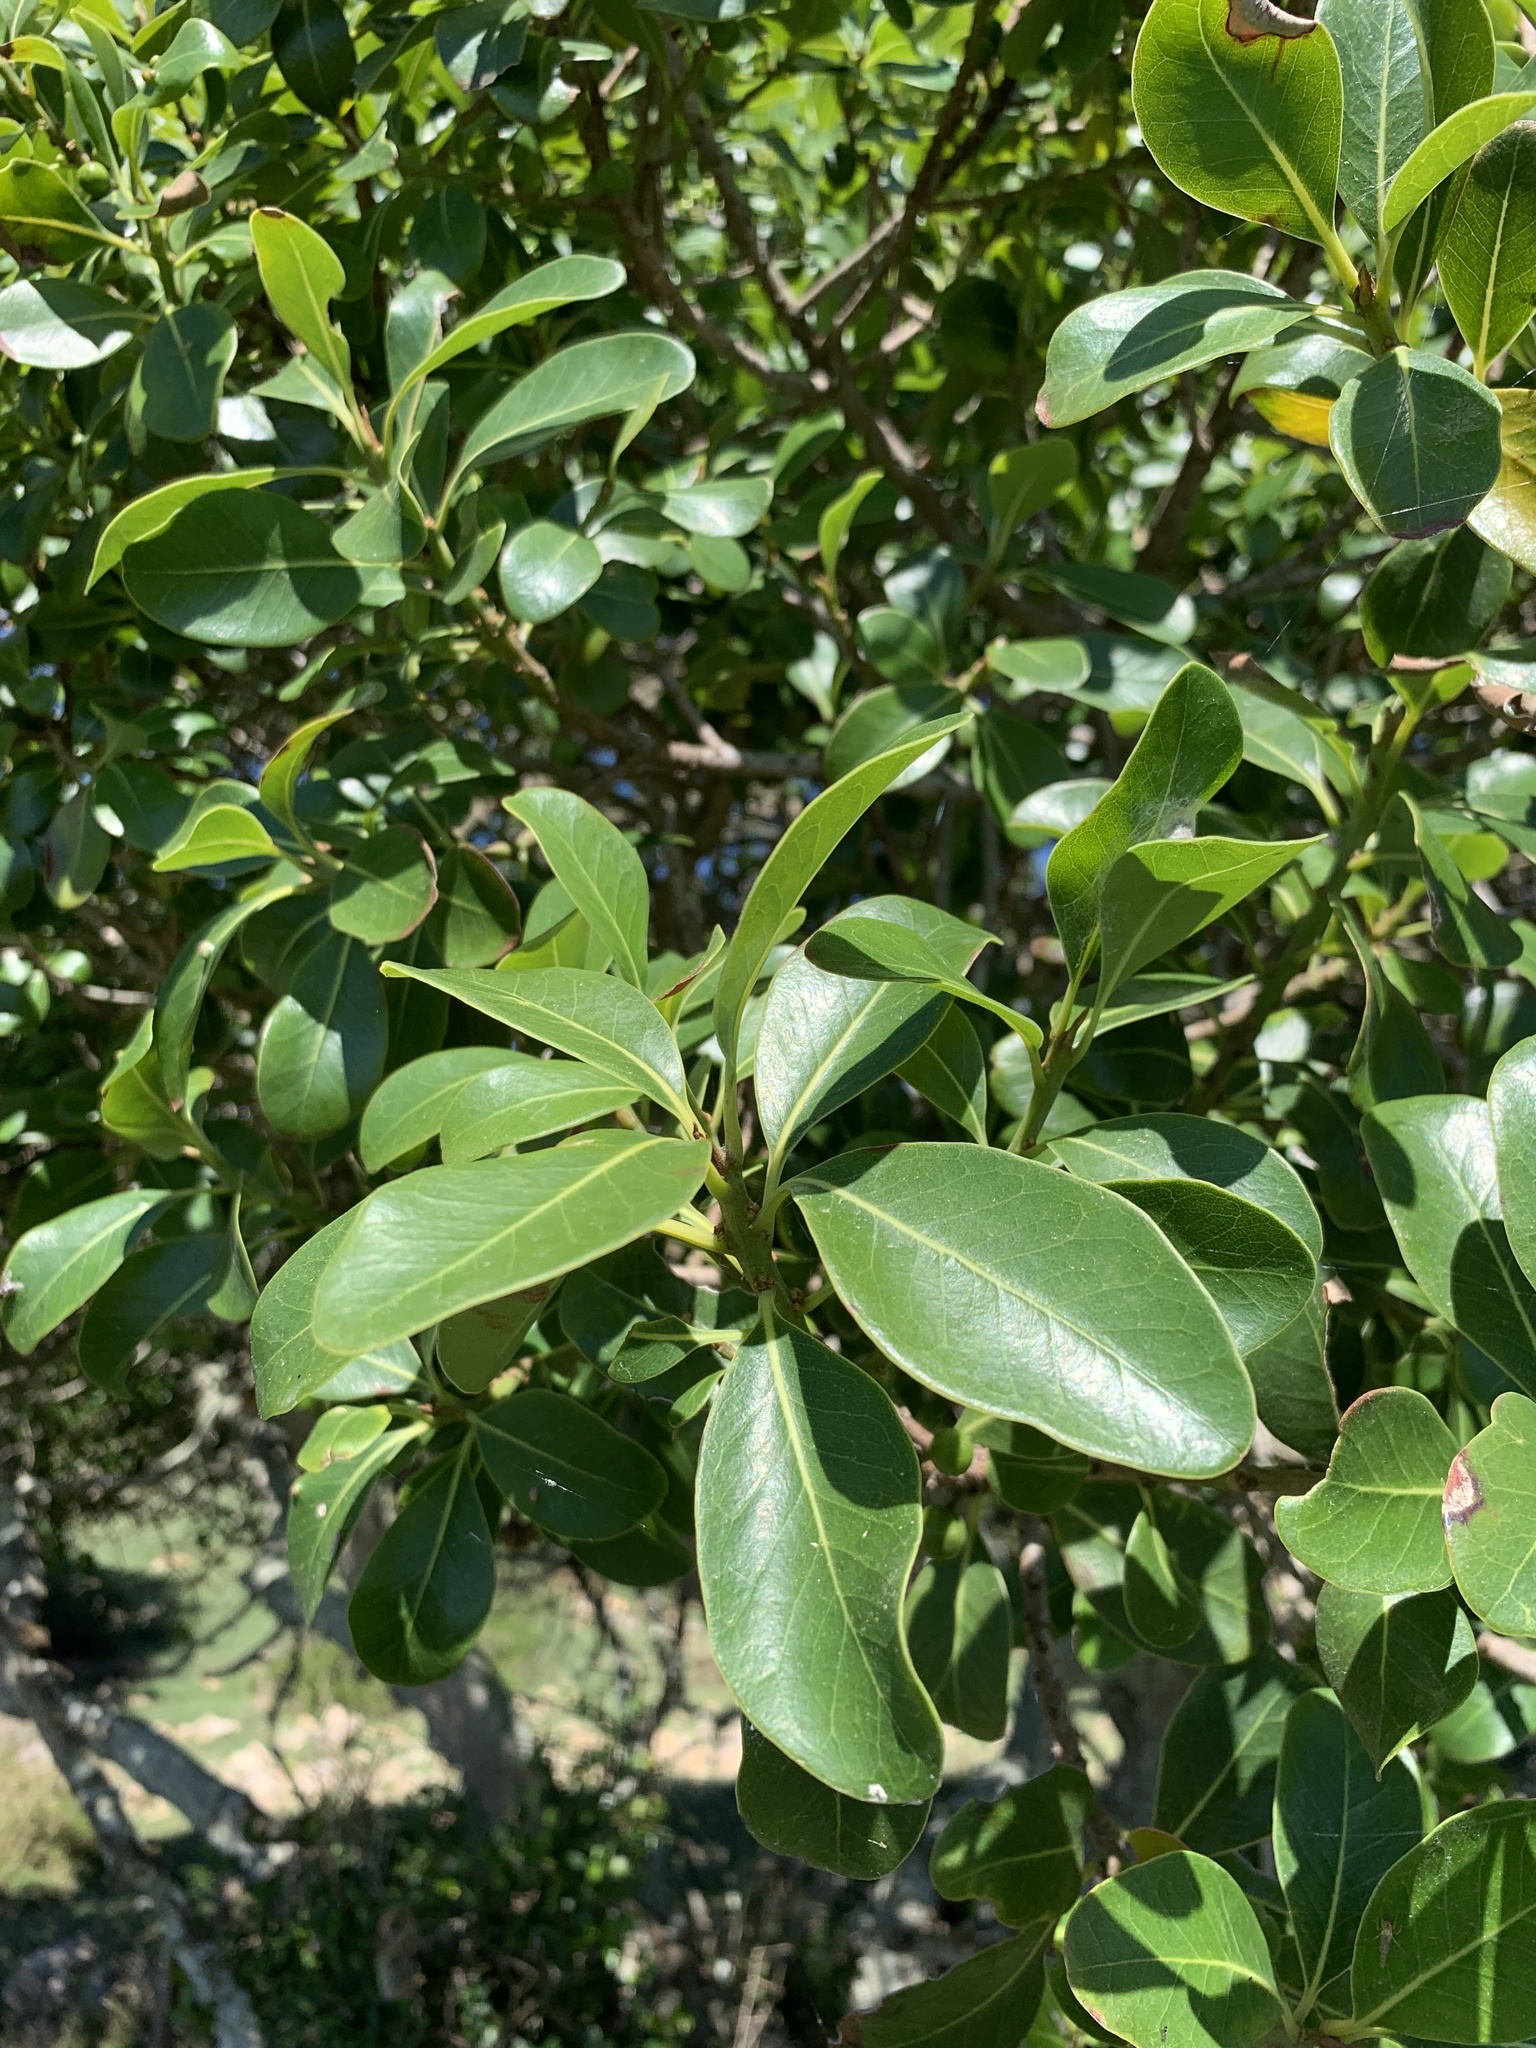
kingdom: Plantae
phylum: Tracheophyta
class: Magnoliopsida
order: Ericales
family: Sapotaceae
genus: Sideroxylon
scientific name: Sideroxylon inerme
